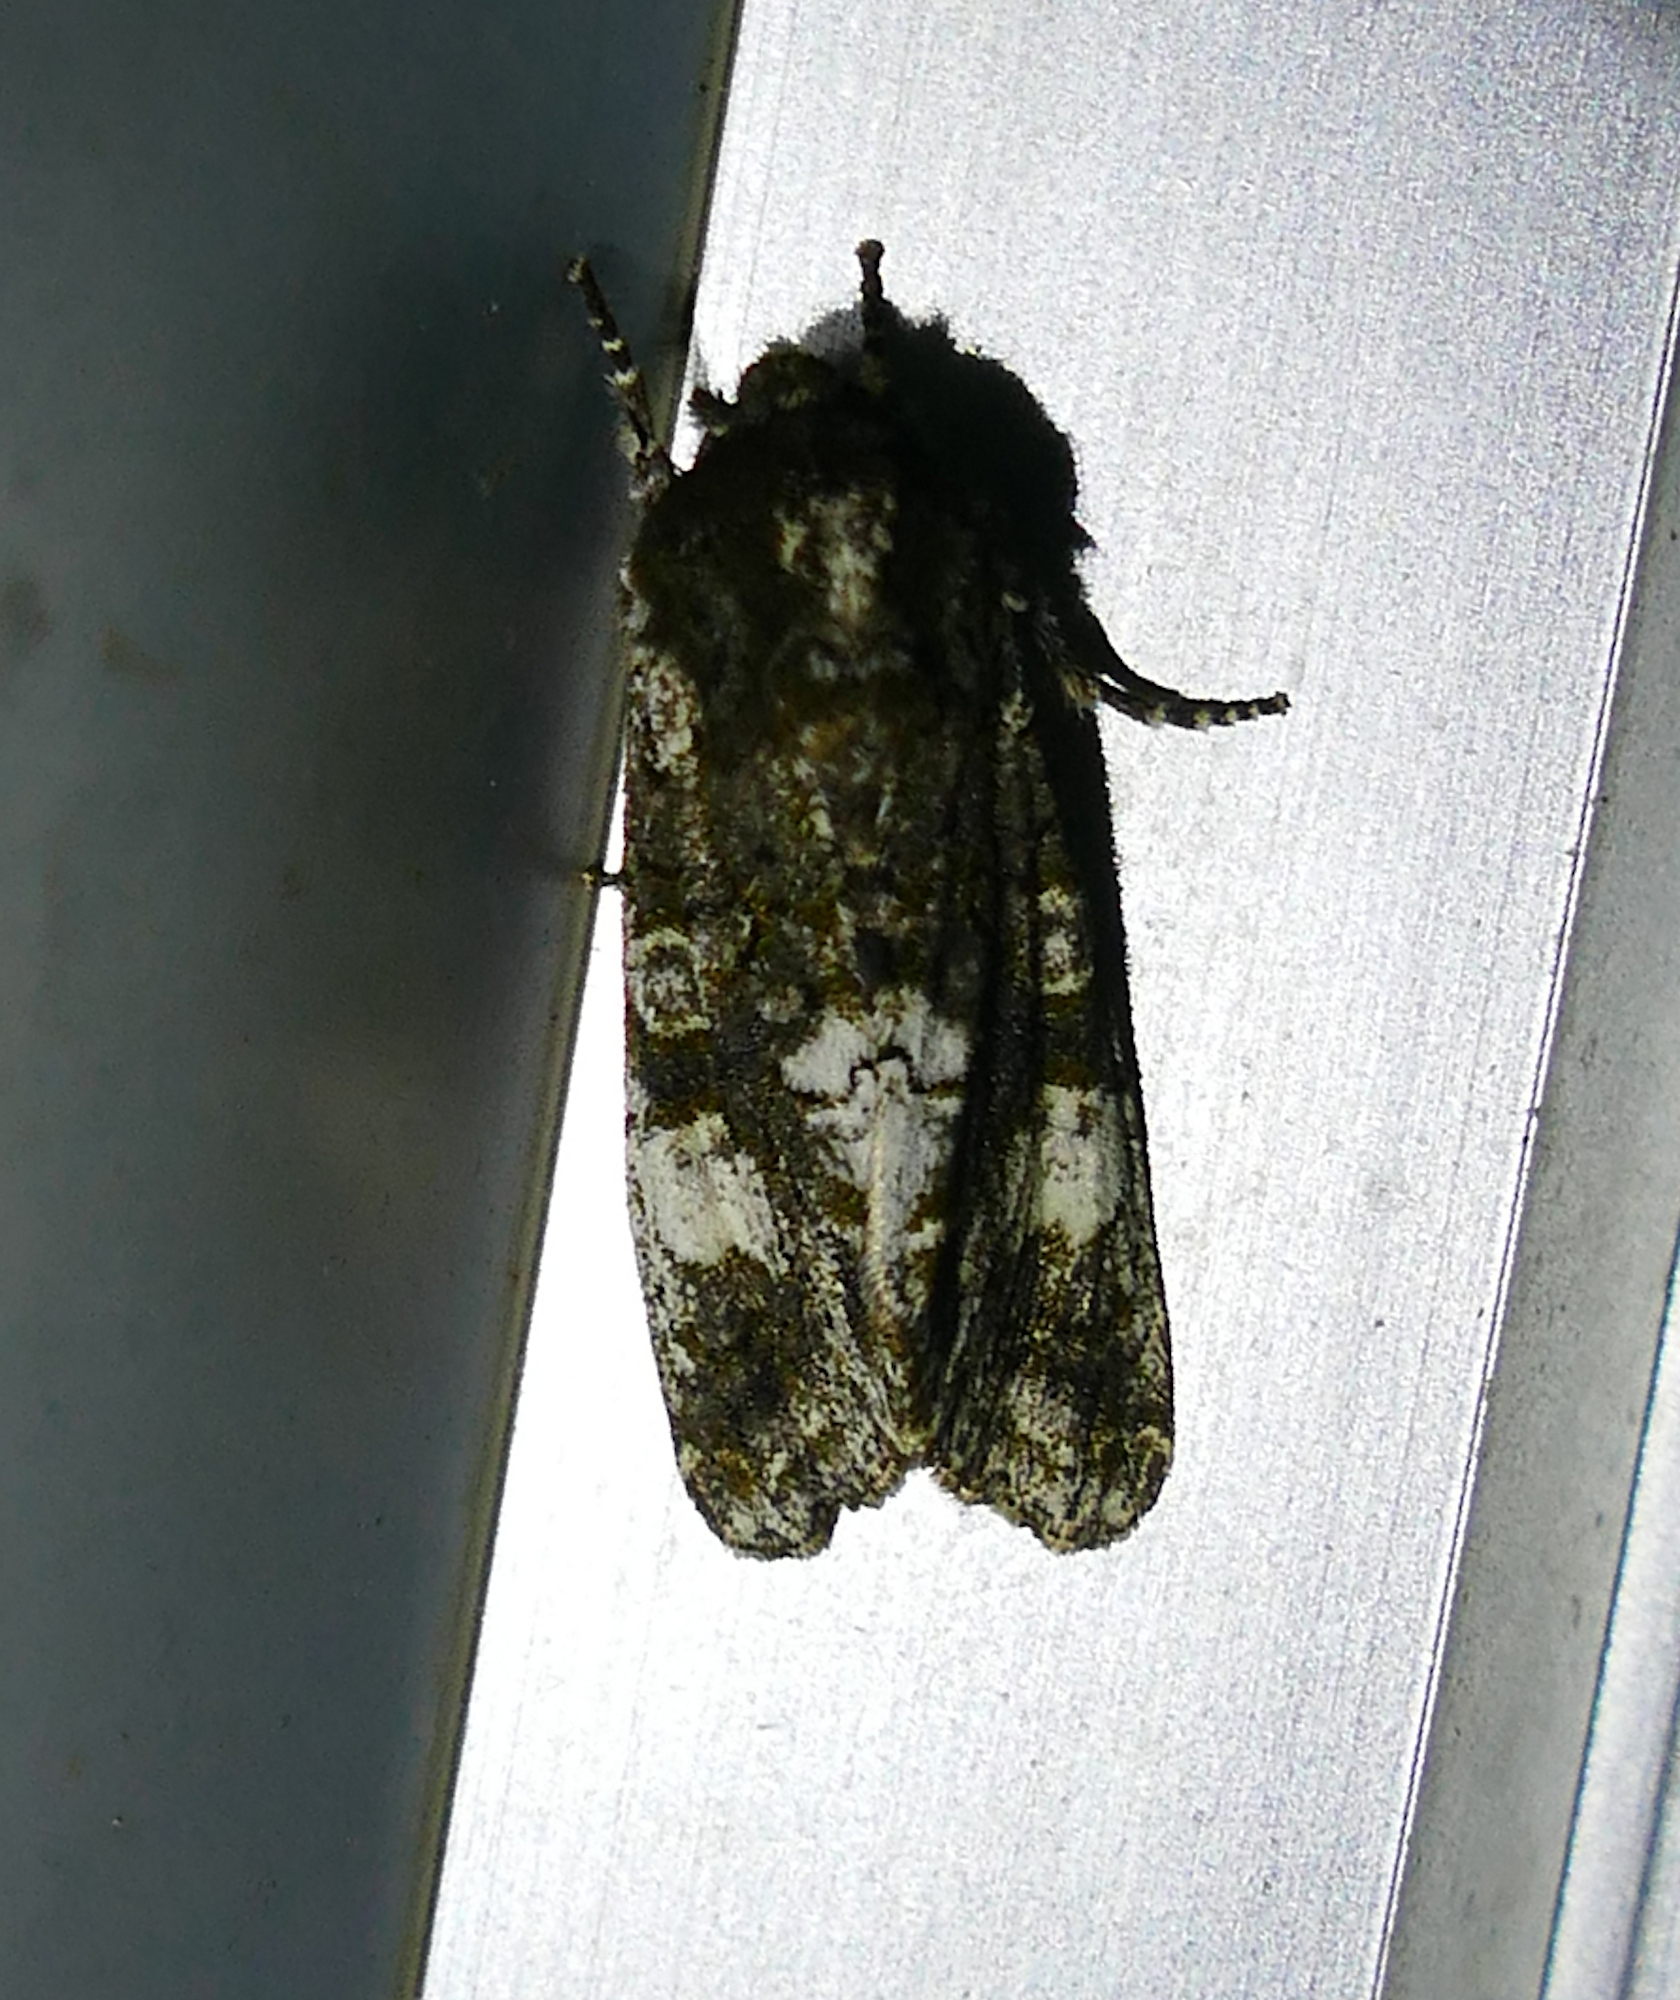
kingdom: Animalia
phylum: Arthropoda
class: Insecta
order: Lepidoptera
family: Noctuidae
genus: Psaphida
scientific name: Psaphida grotei
